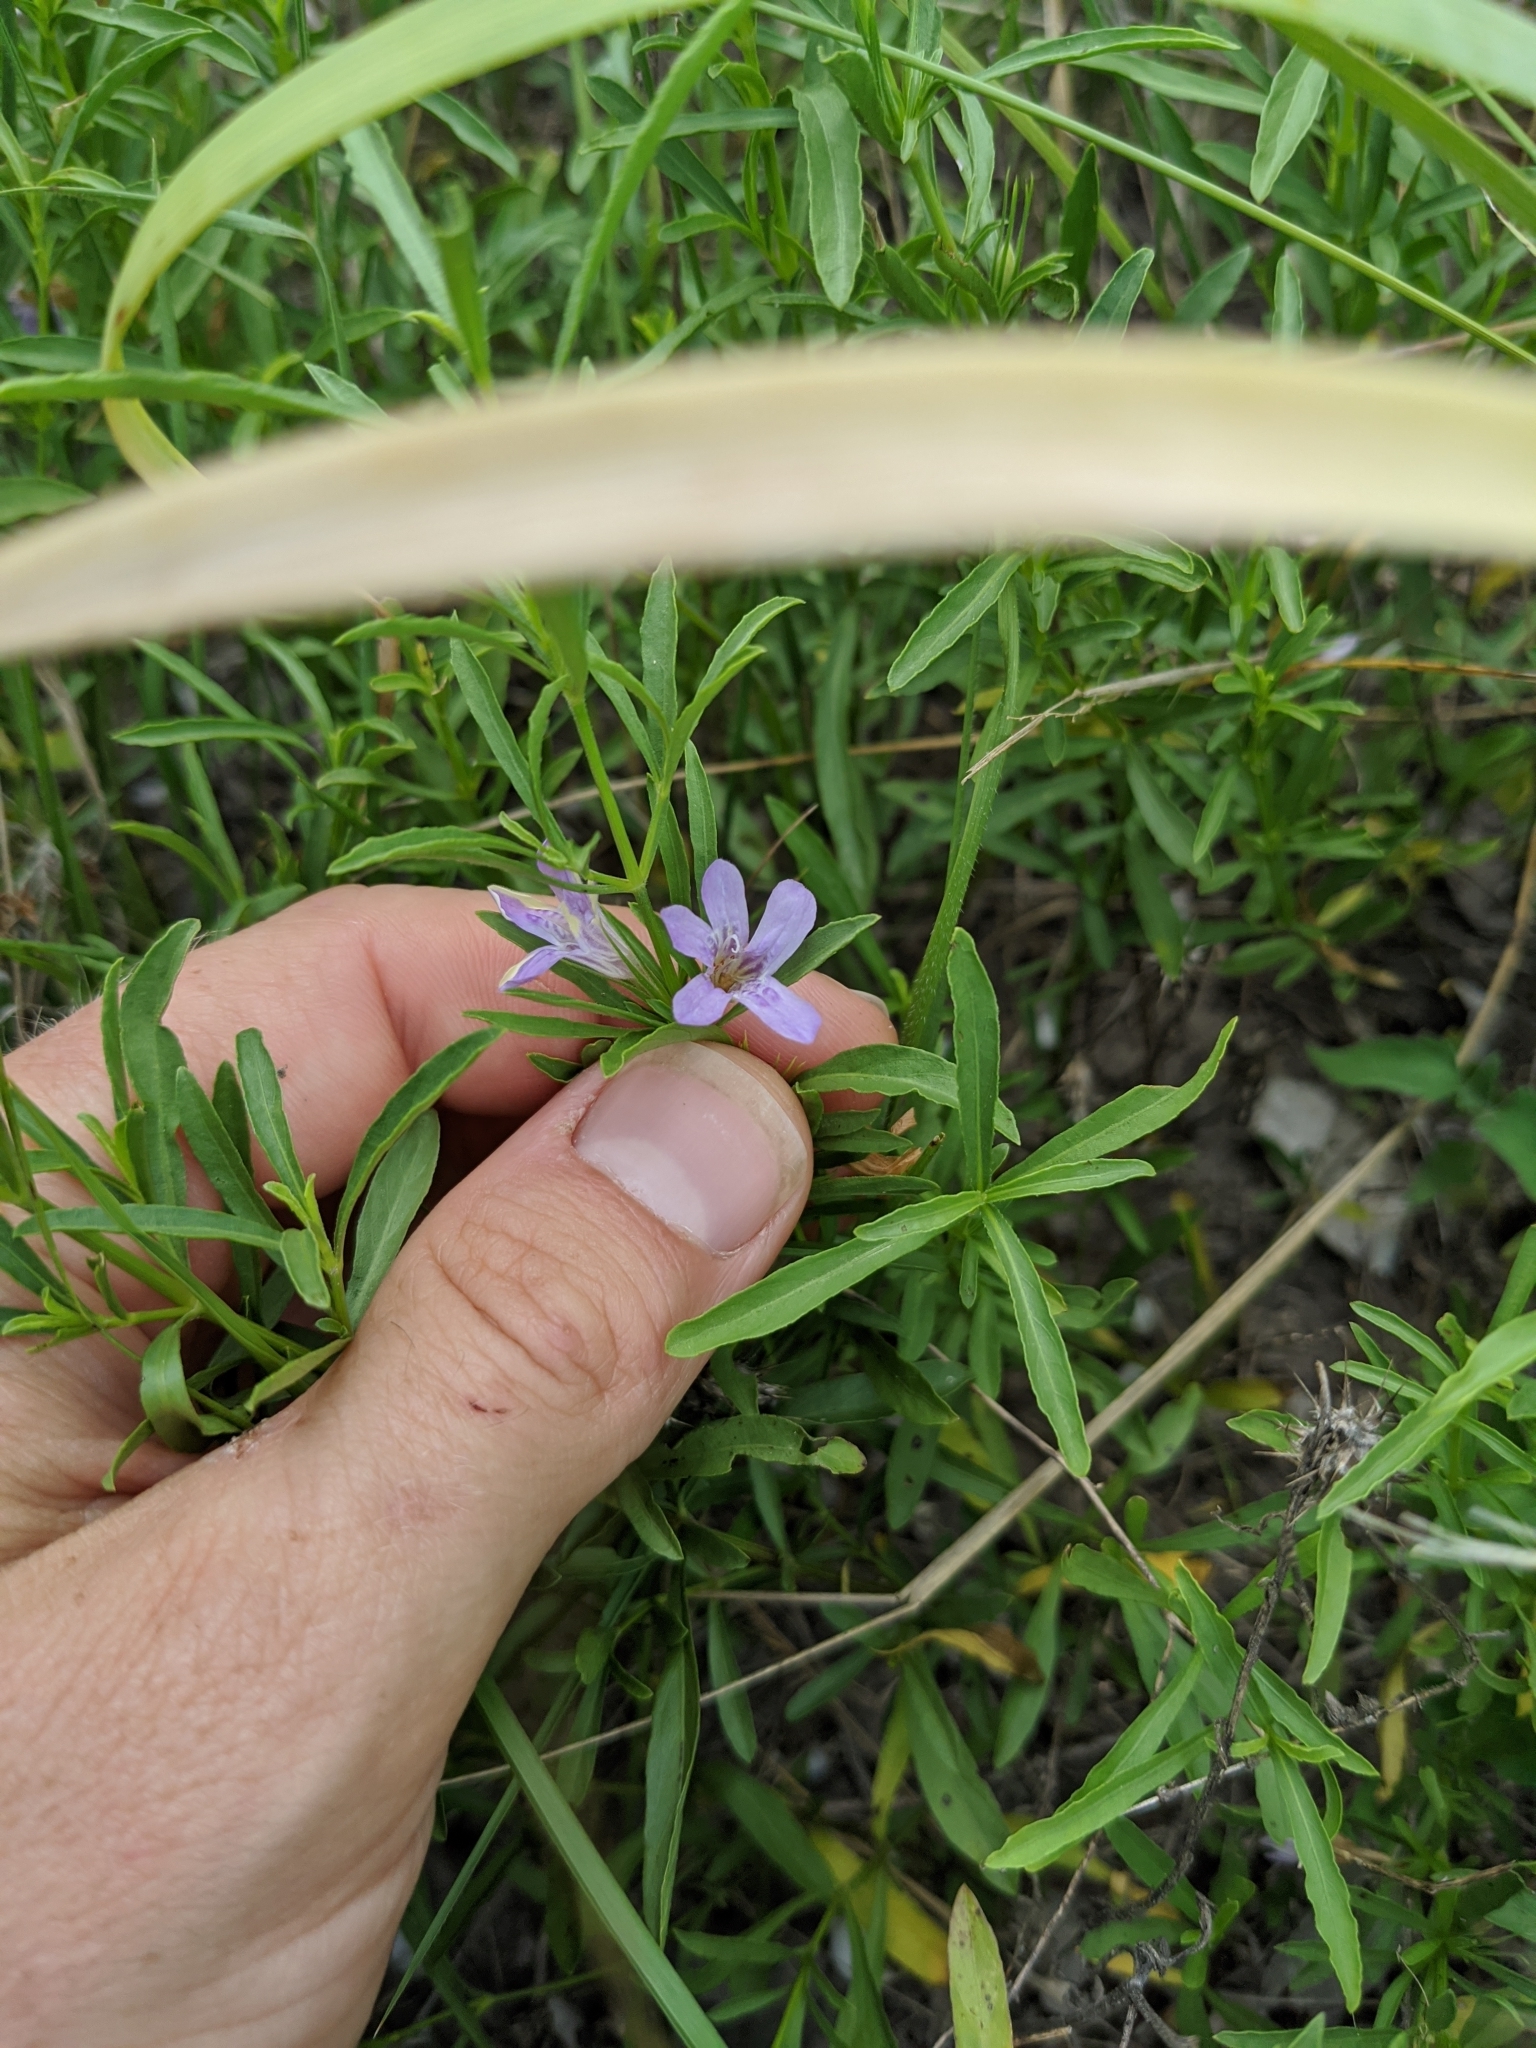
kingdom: Plantae
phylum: Tracheophyta
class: Magnoliopsida
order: Lamiales
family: Acanthaceae
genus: Dyschoriste
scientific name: Dyschoriste linearis
